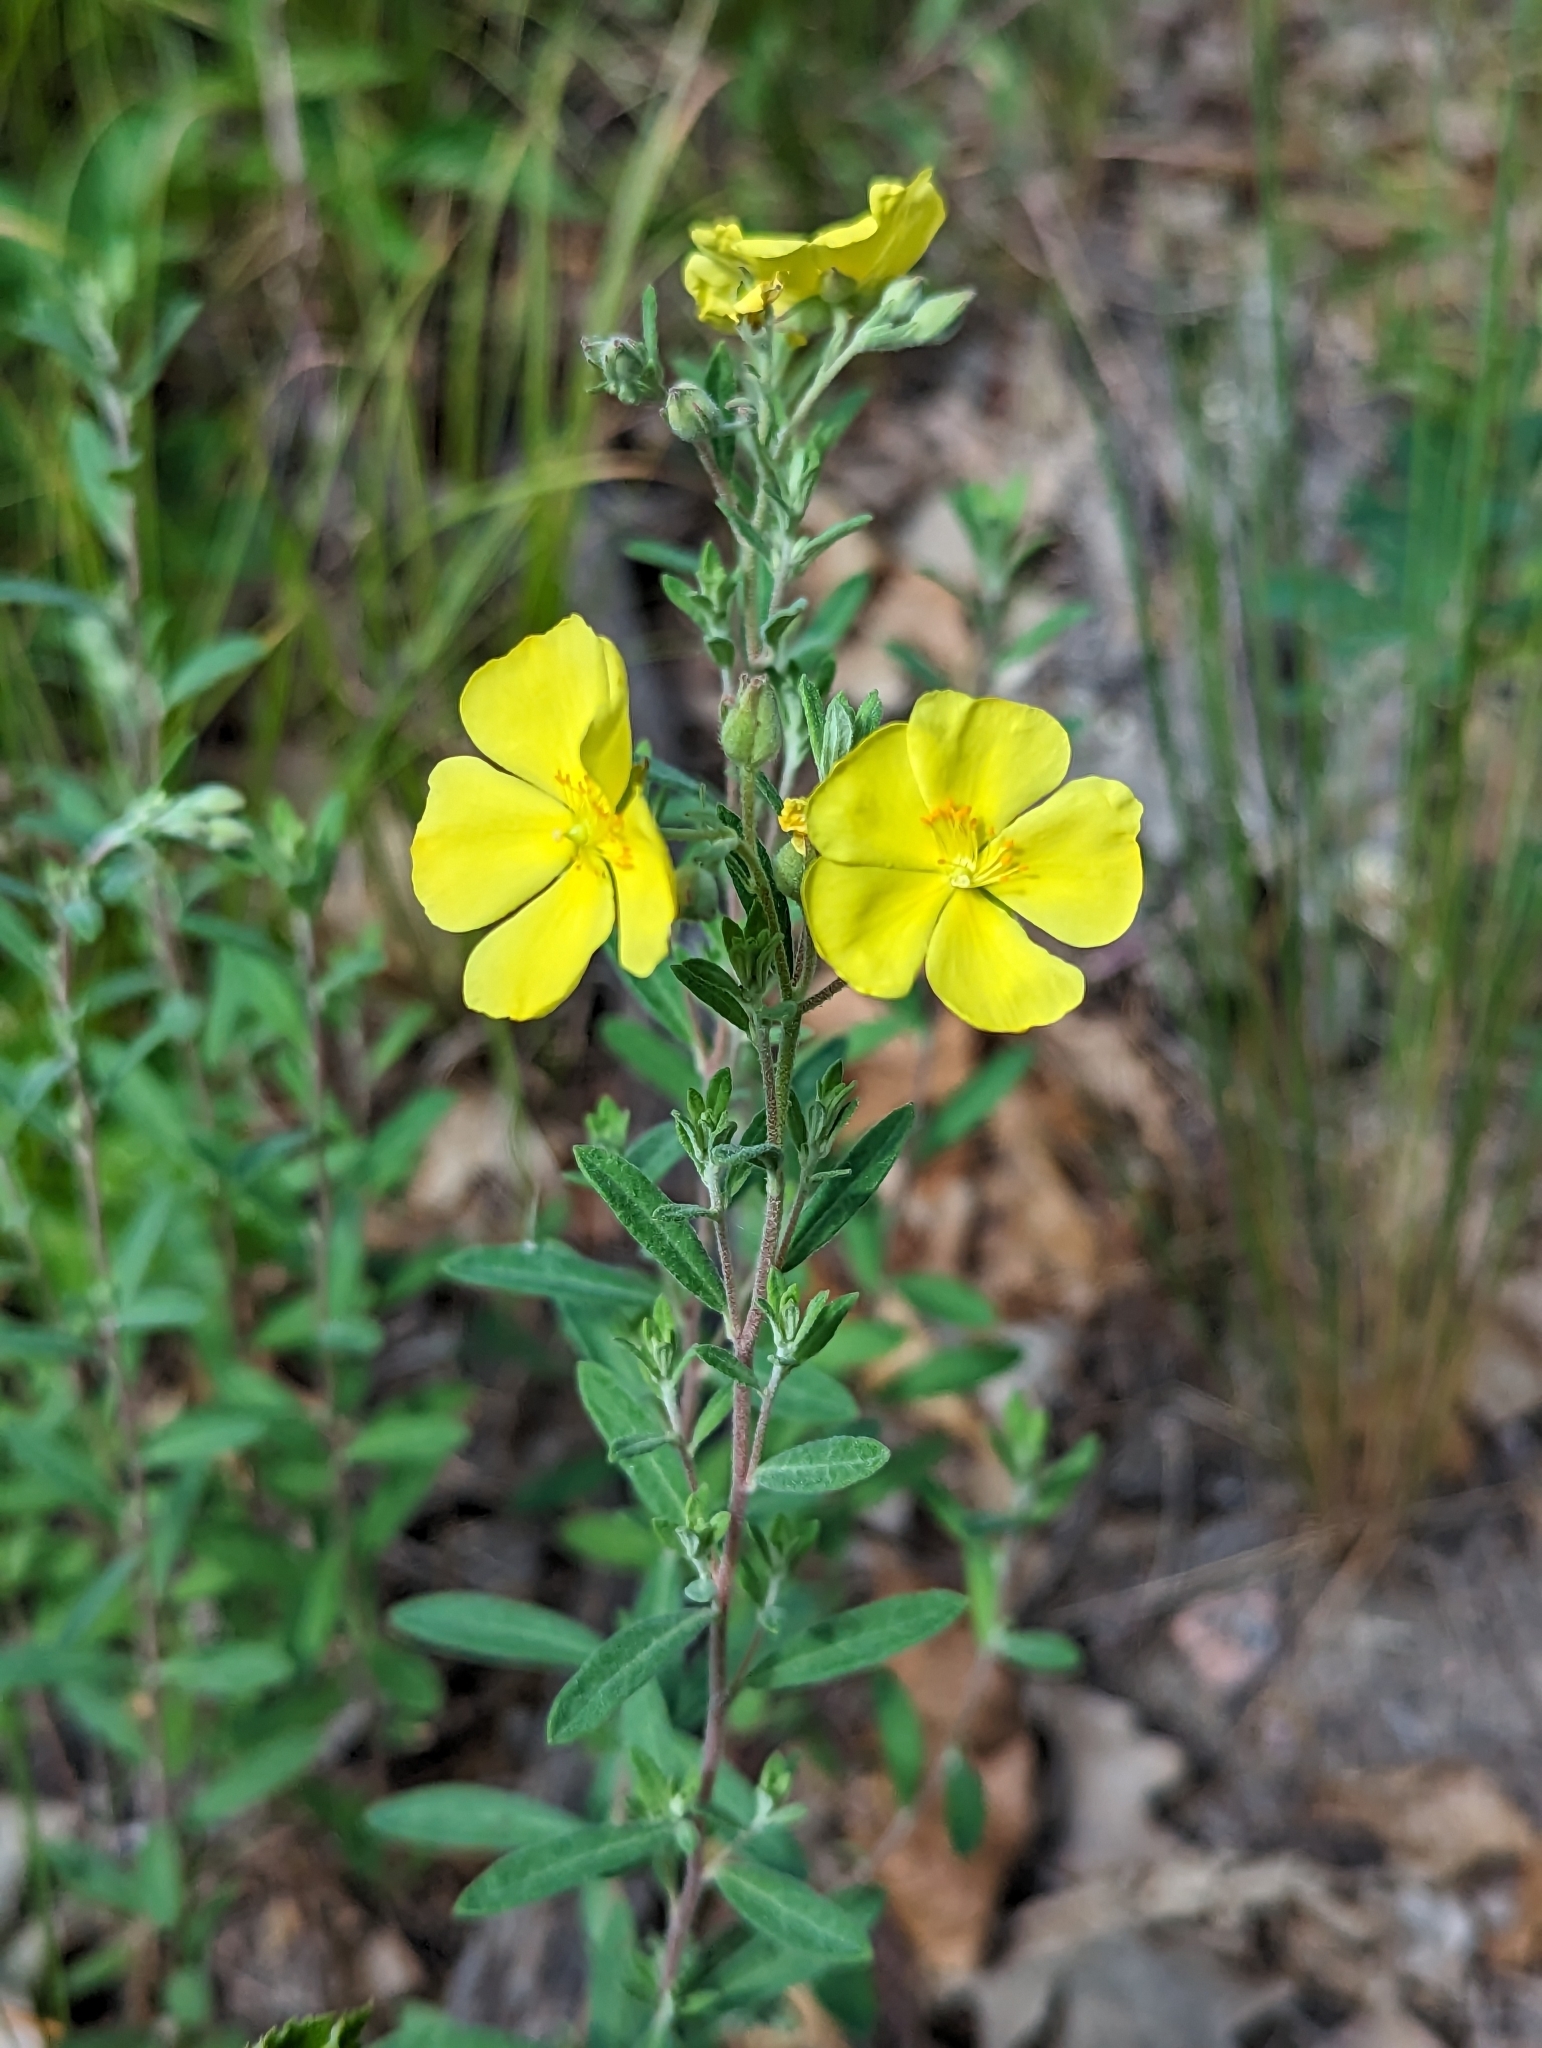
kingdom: Plantae
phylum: Tracheophyta
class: Magnoliopsida
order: Malvales
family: Cistaceae
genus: Crocanthemum
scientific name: Crocanthemum bicknellii
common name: Hoary frostweed
